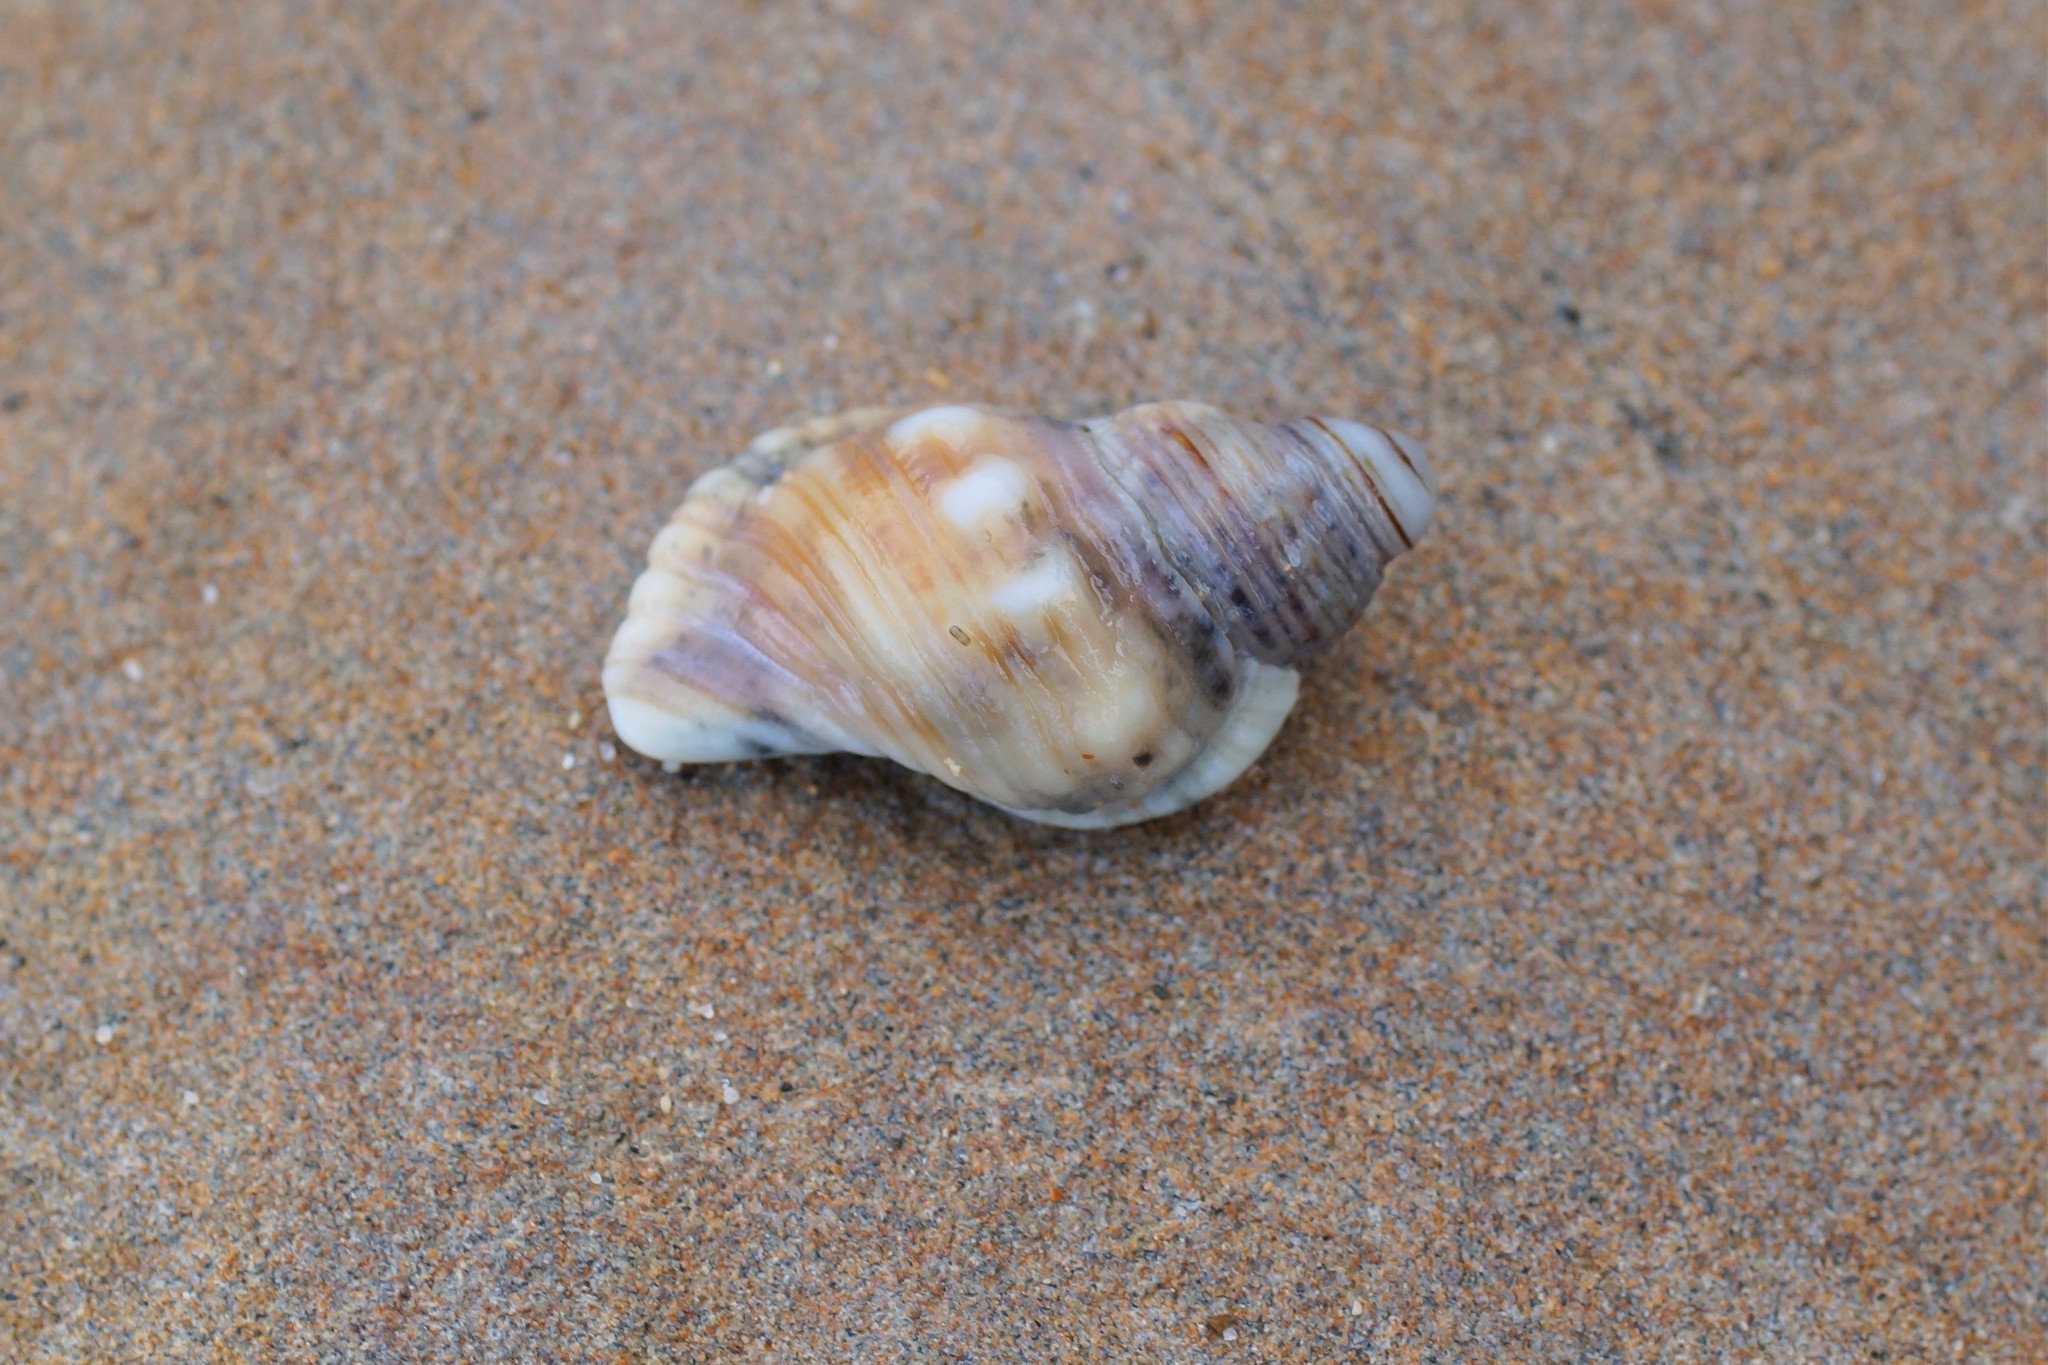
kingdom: Animalia
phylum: Mollusca
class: Gastropoda
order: Littorinimorpha
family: Cymatiidae
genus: Cabestana
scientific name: Cabestana spengleri
